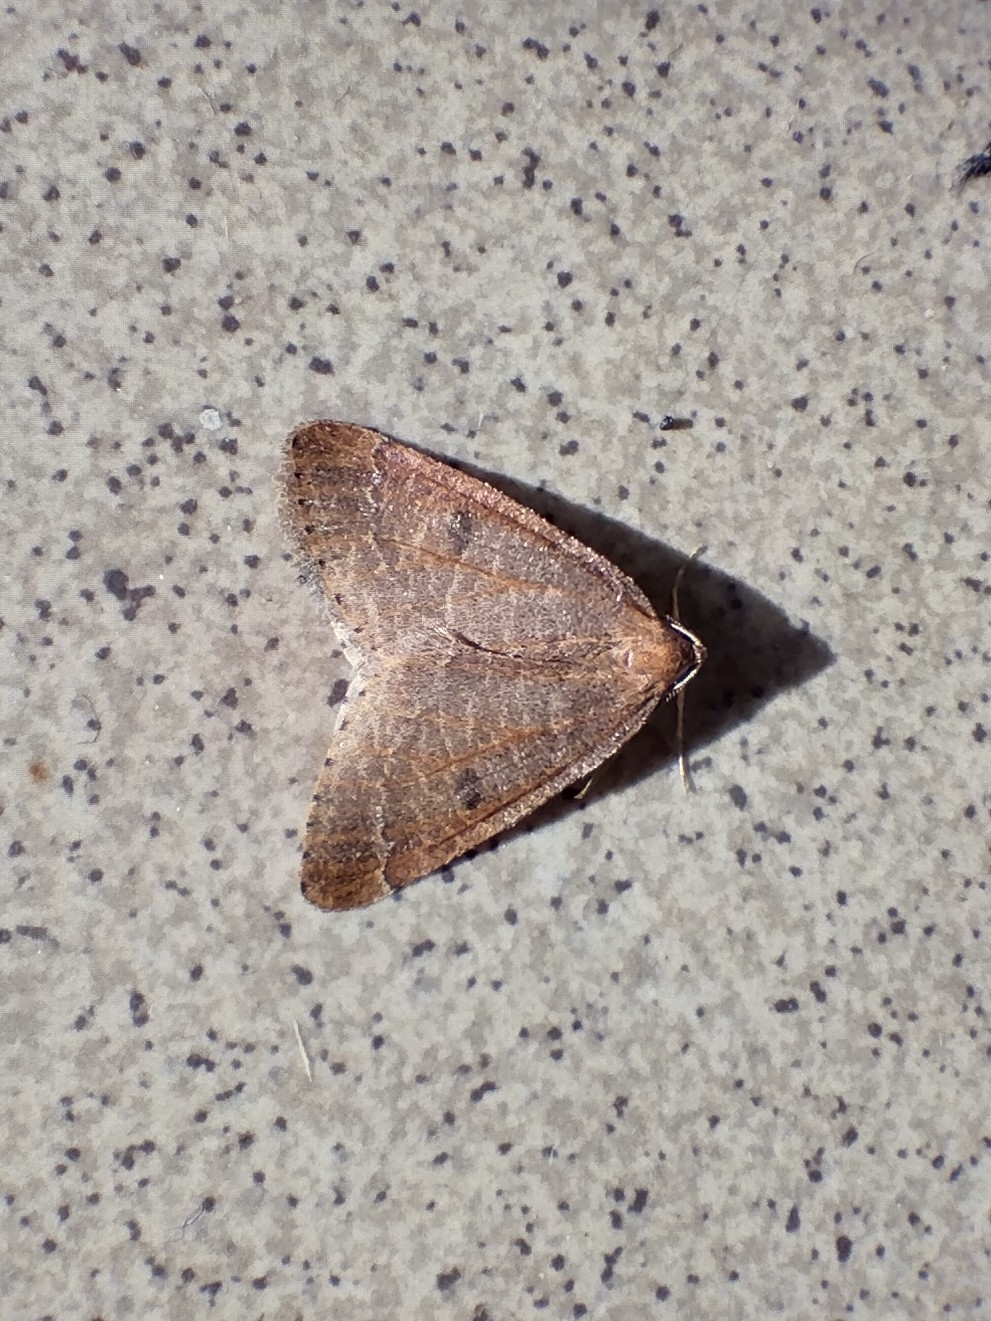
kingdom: Animalia
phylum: Arthropoda
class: Insecta
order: Lepidoptera
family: Geometridae
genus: Theria
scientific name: Theria primaria
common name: Early moth
